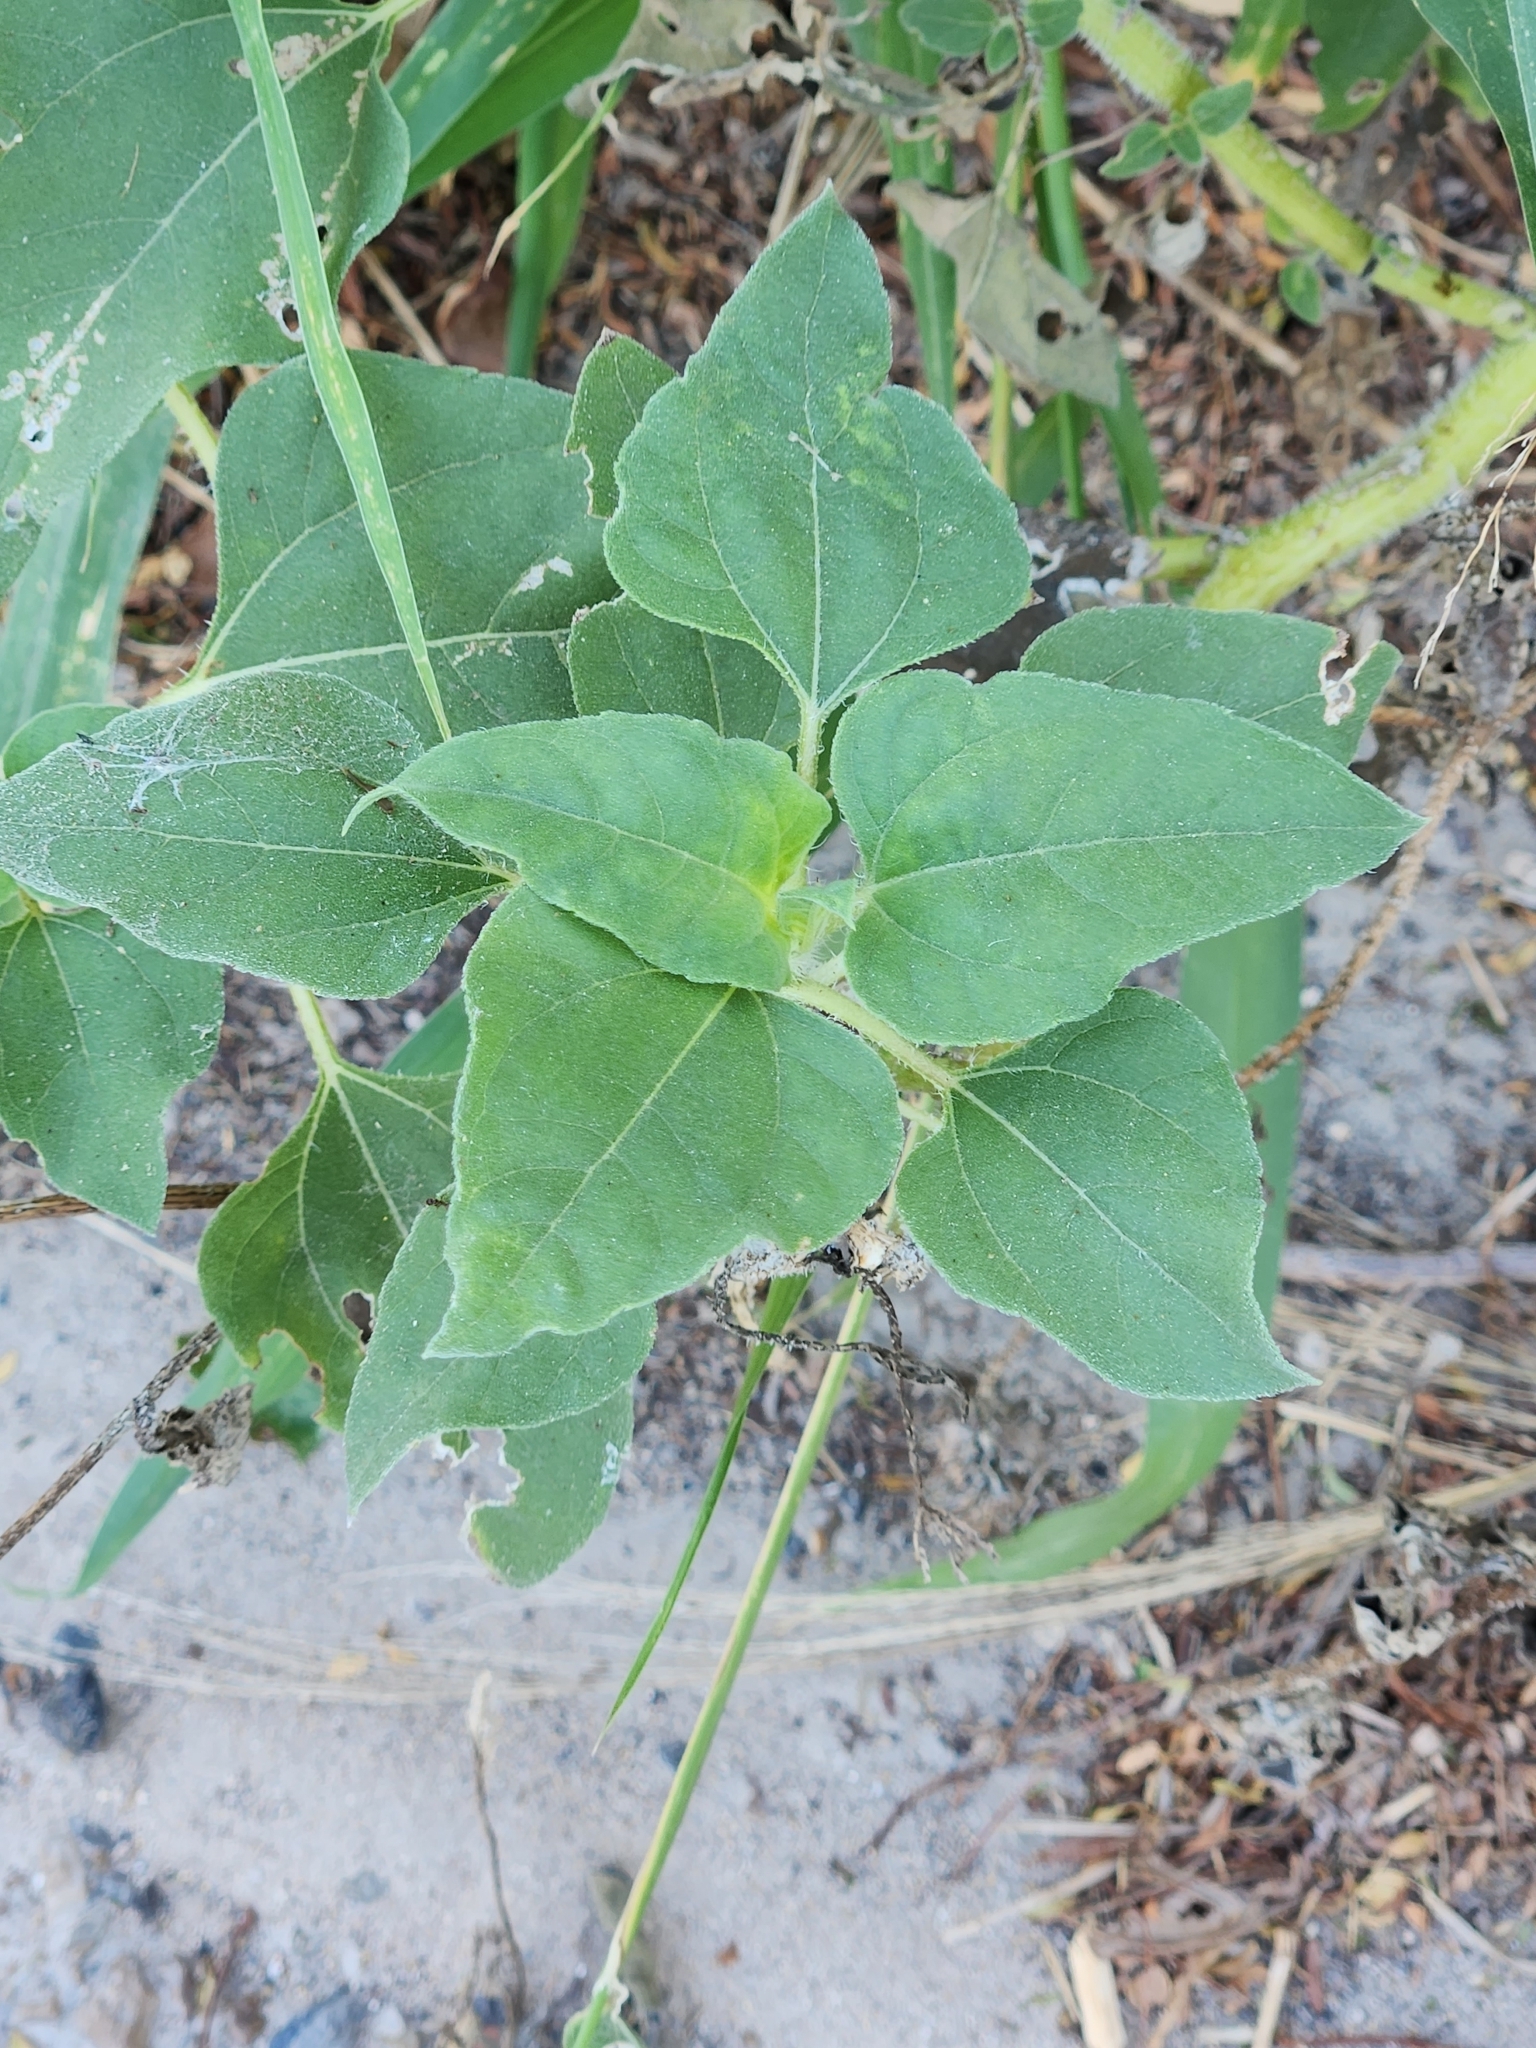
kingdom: Plantae
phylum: Tracheophyta
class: Magnoliopsida
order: Asterales
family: Asteraceae
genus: Helianthus
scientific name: Helianthus annuus
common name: Sunflower
